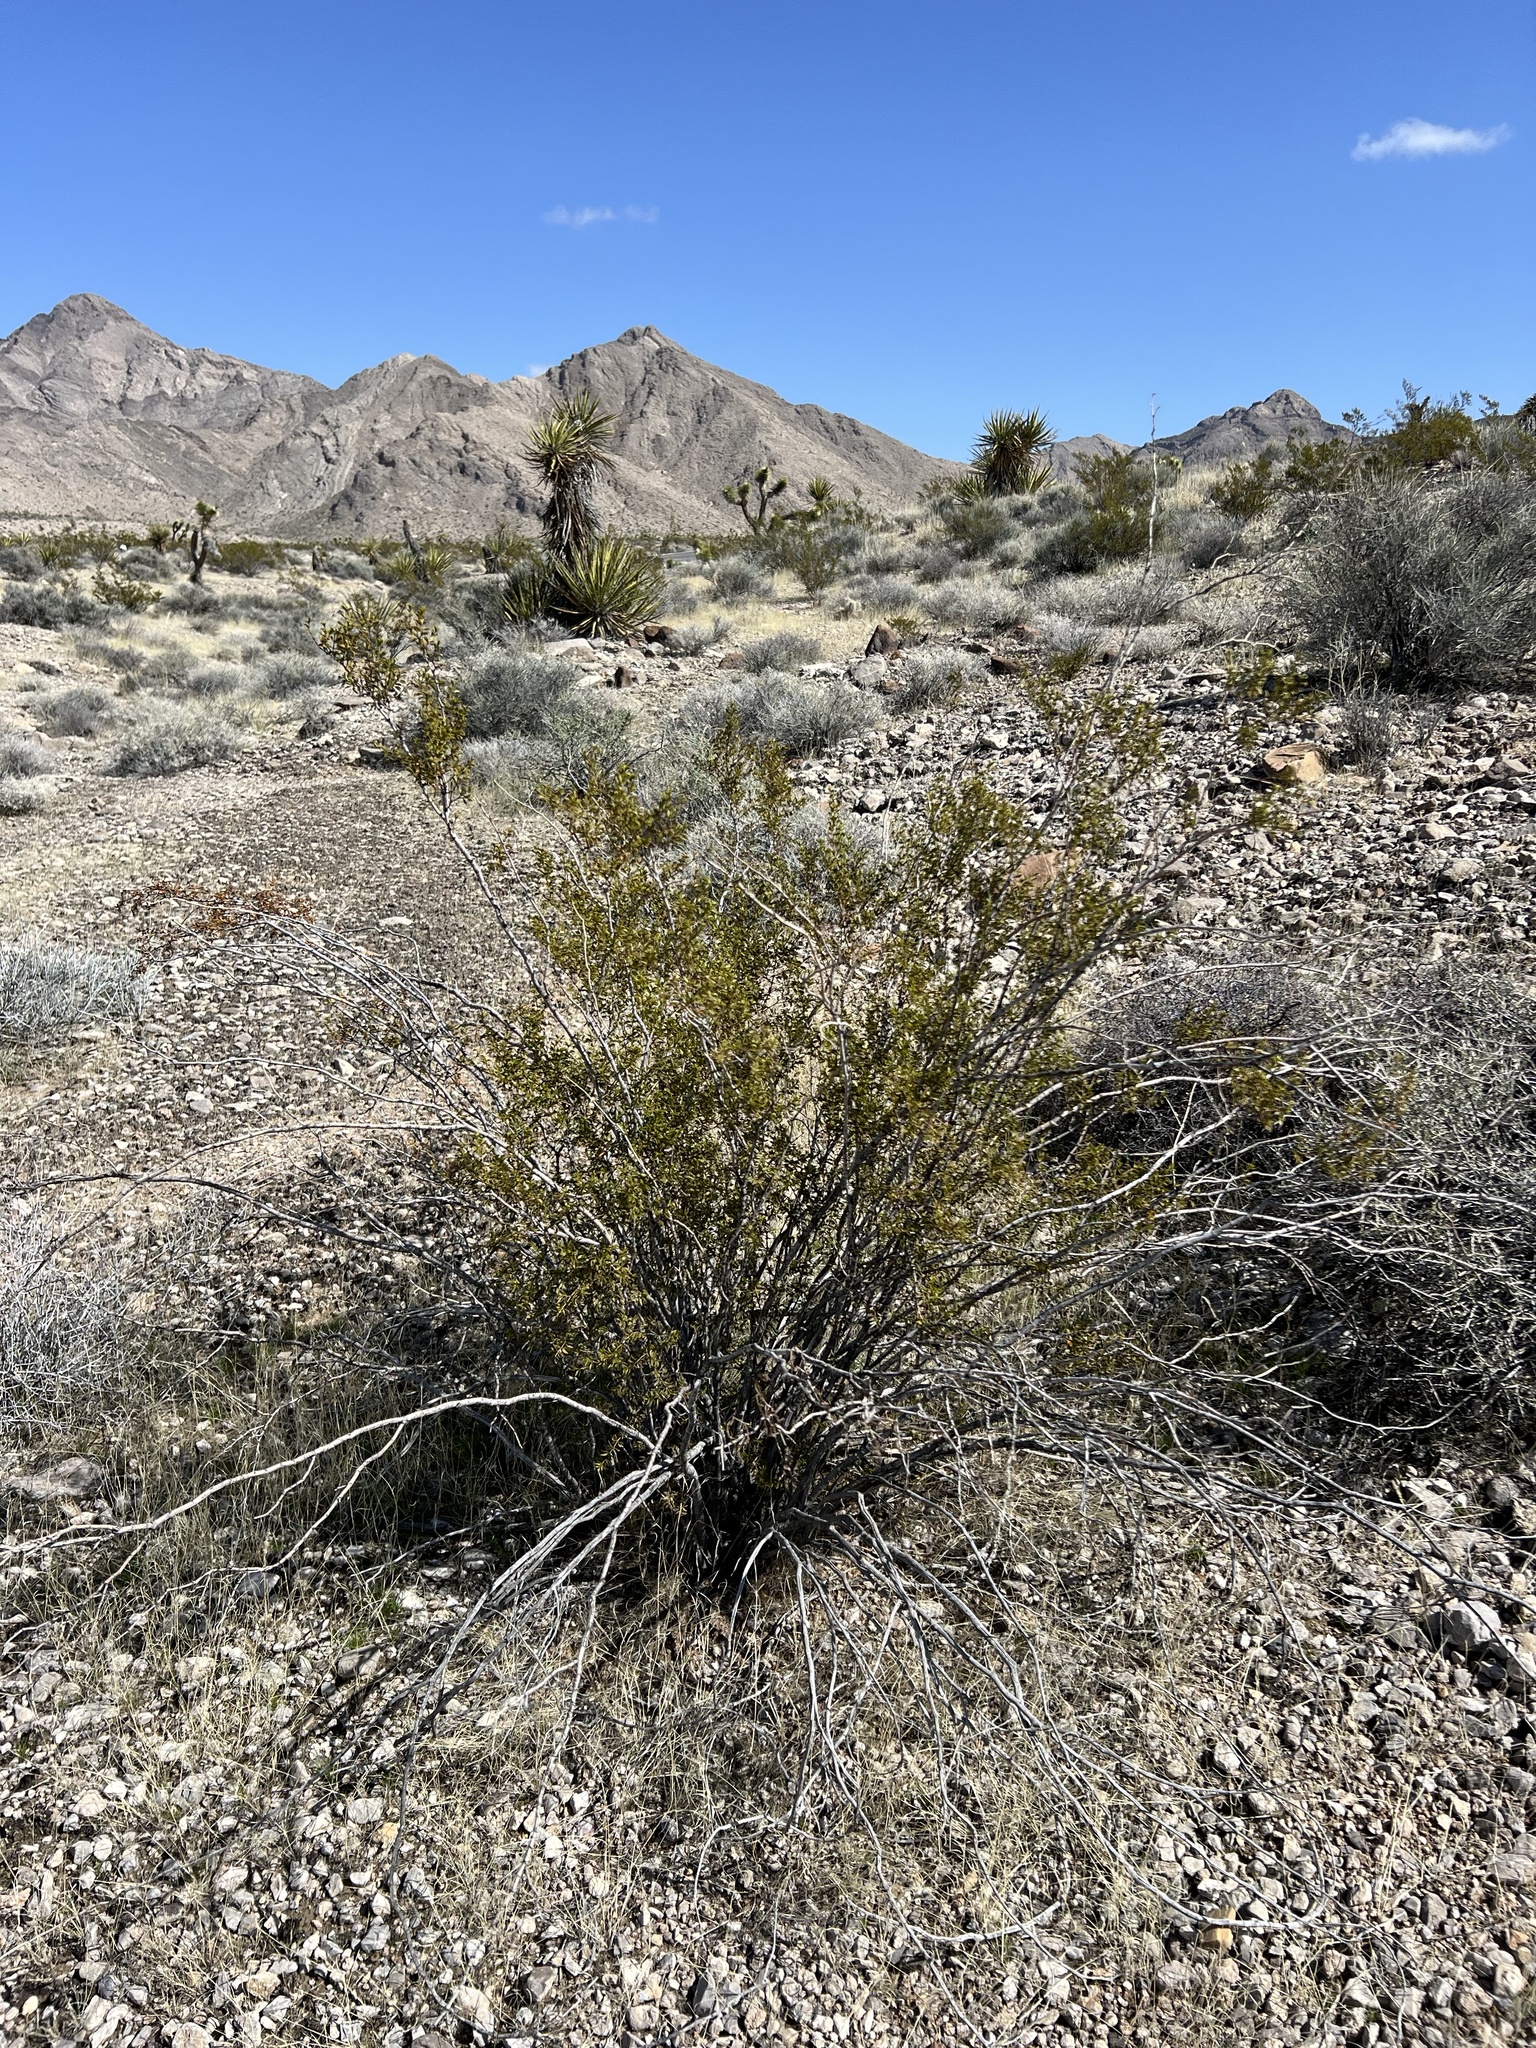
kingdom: Plantae
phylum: Tracheophyta
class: Magnoliopsida
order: Zygophyllales
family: Zygophyllaceae
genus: Larrea
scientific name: Larrea tridentata
